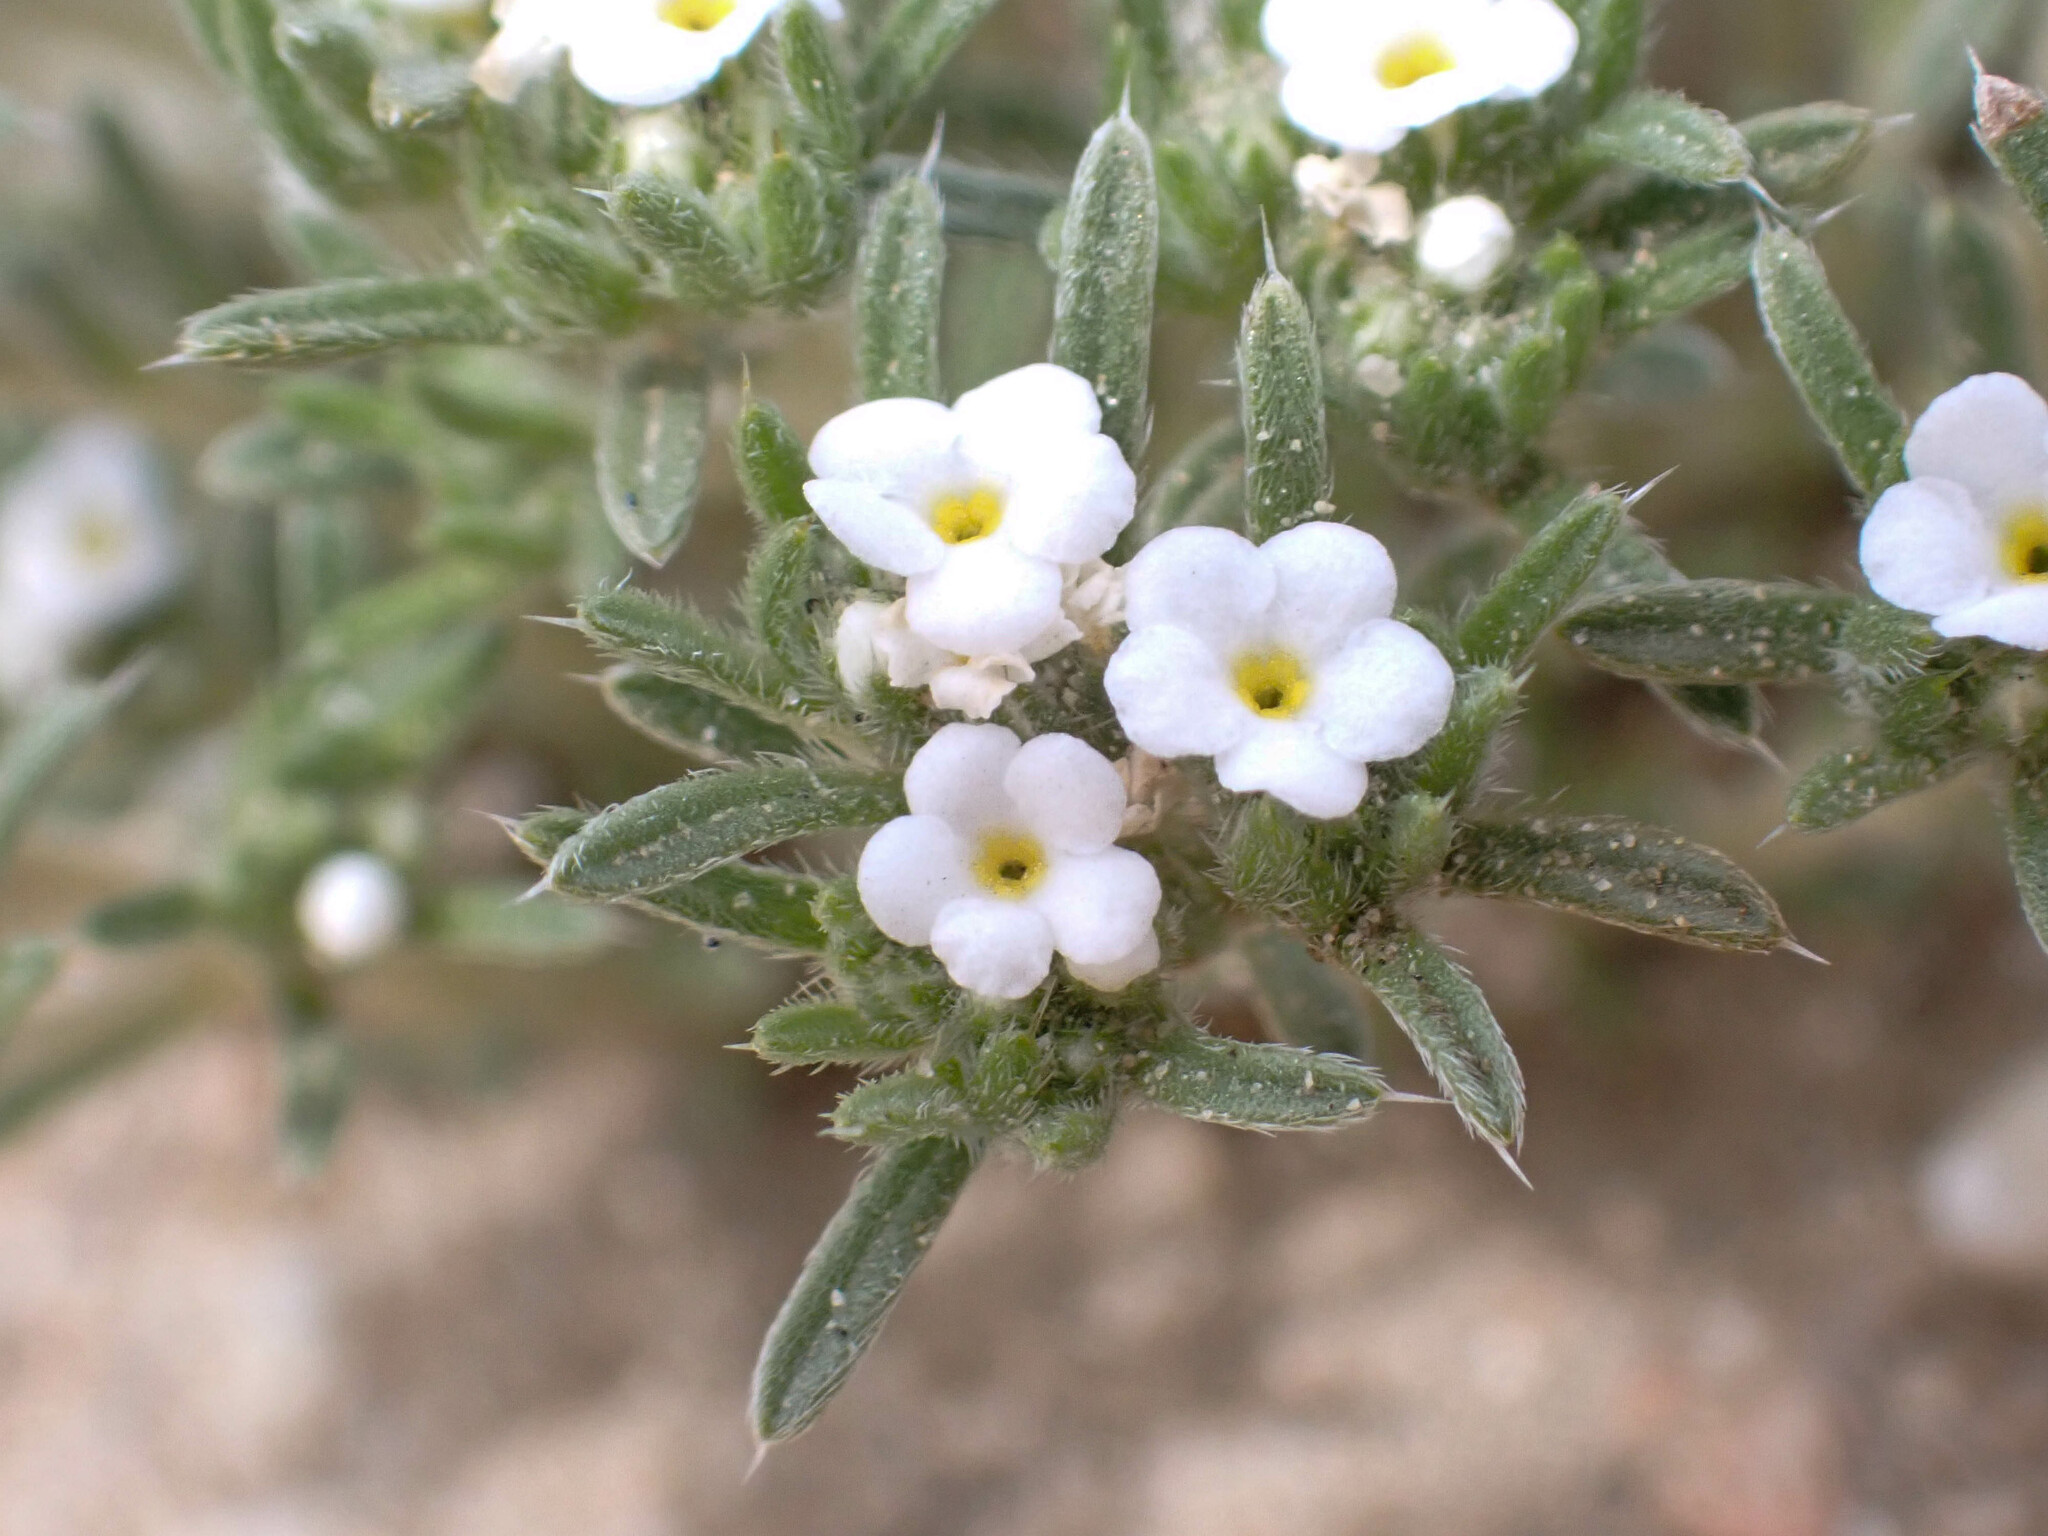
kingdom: Plantae
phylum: Tracheophyta
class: Magnoliopsida
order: Boraginales
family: Boraginaceae
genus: Greeneocharis
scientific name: Greeneocharis circumscissa
